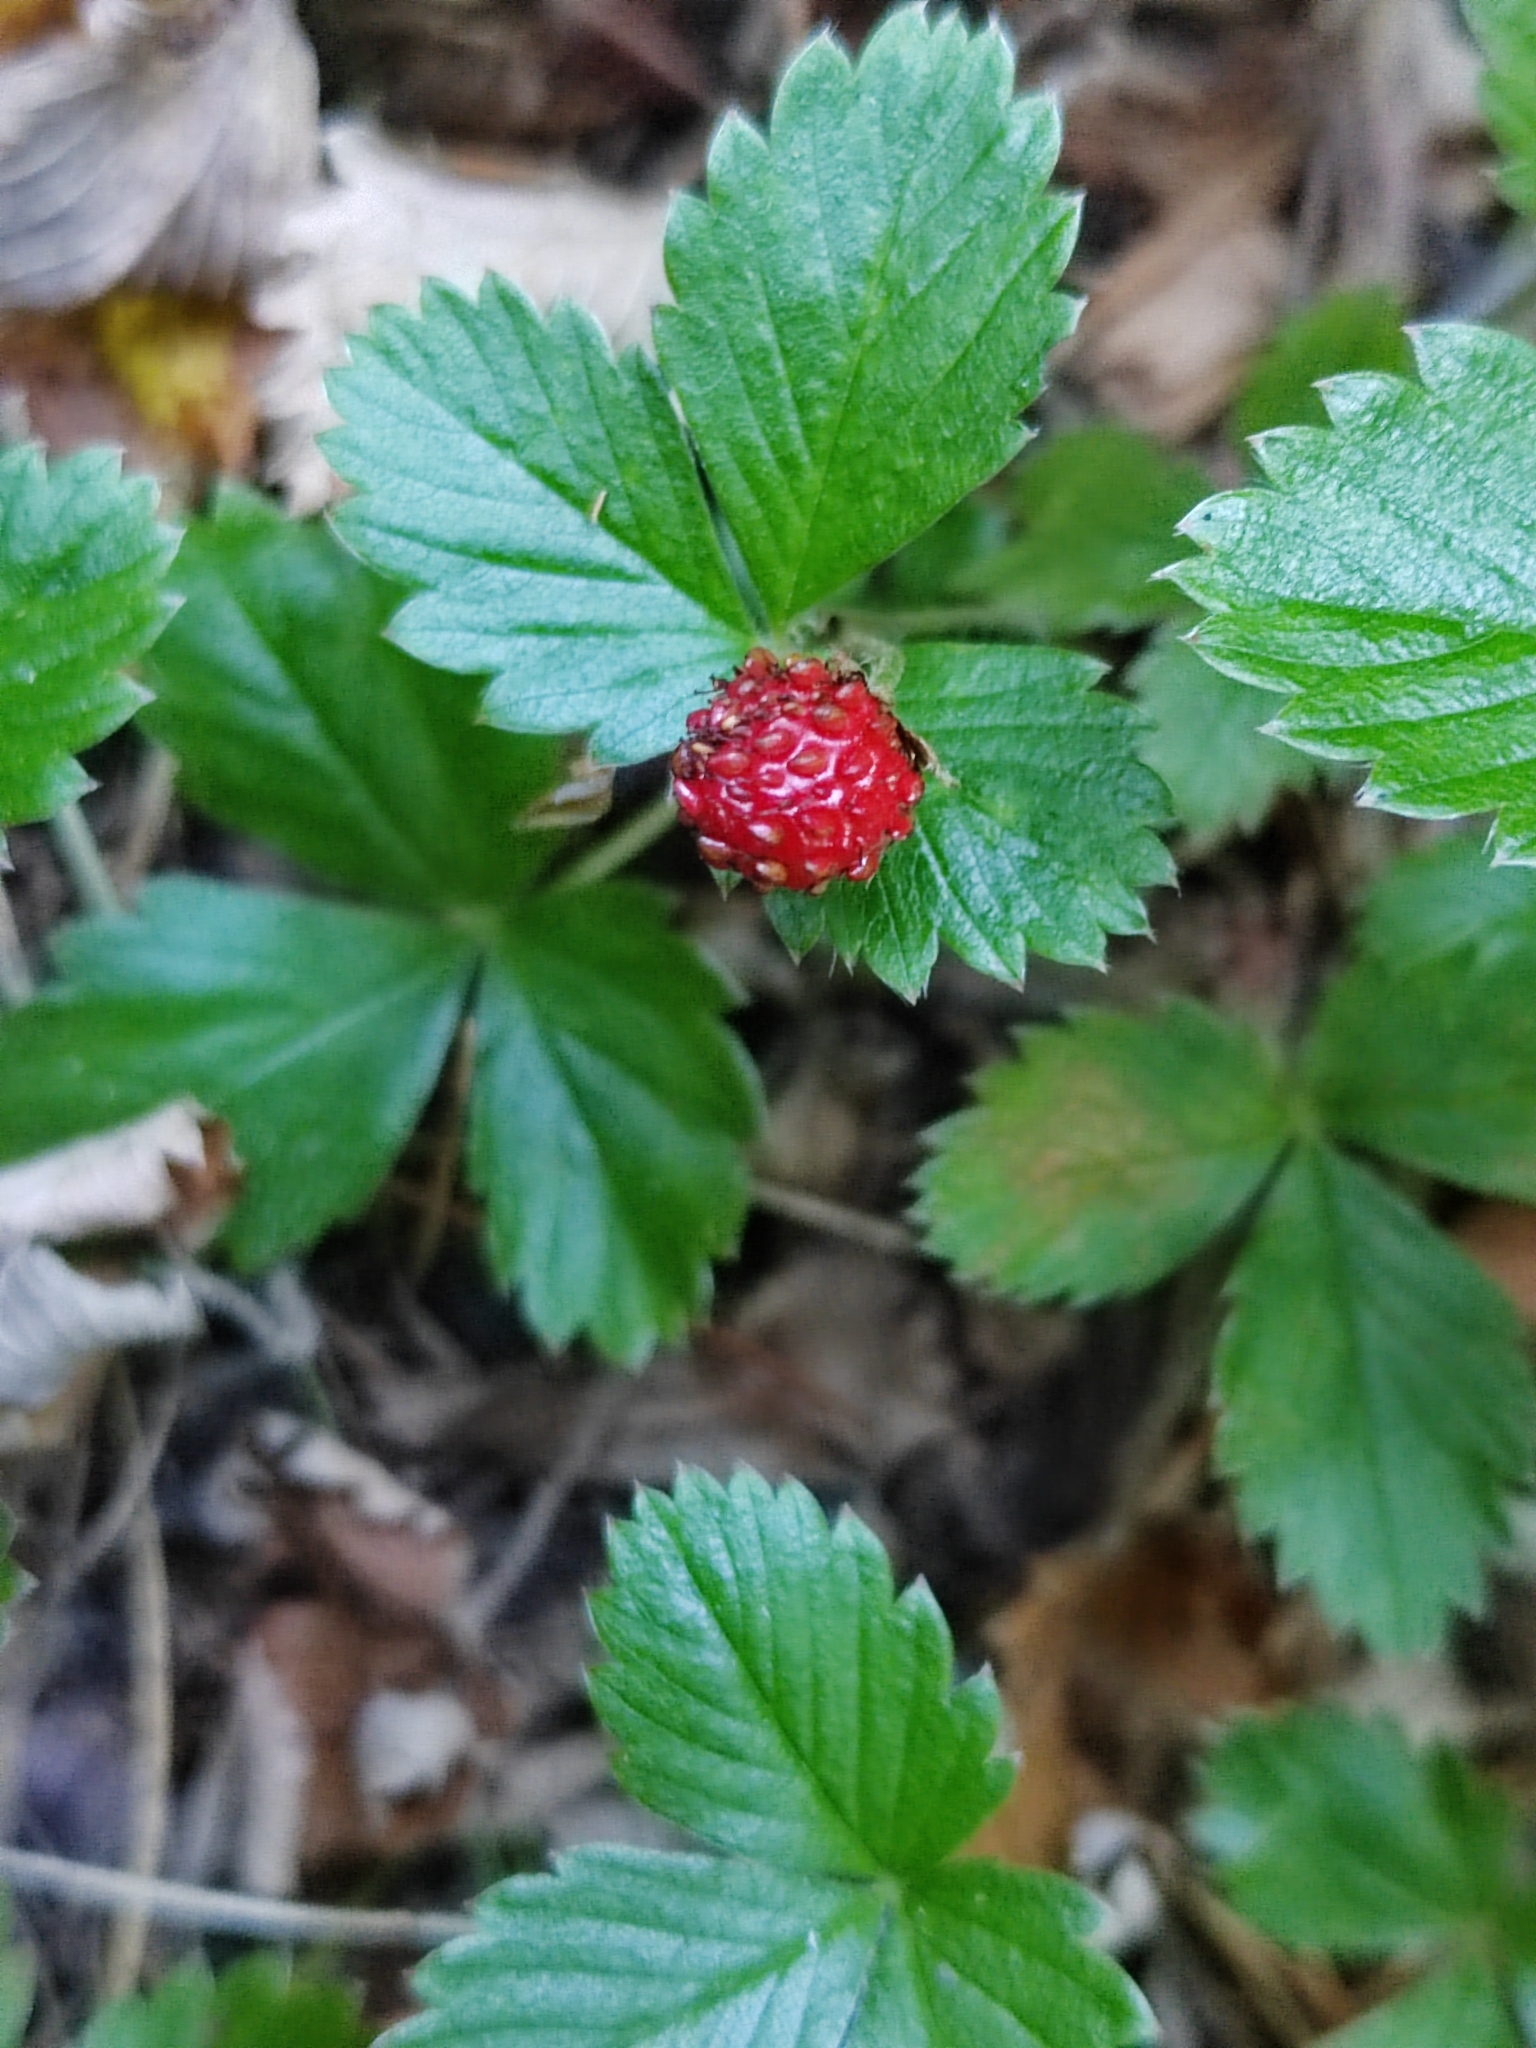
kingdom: Plantae
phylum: Tracheophyta
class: Magnoliopsida
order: Rosales
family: Rosaceae
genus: Fragaria
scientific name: Fragaria vesca
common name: Wild strawberry
